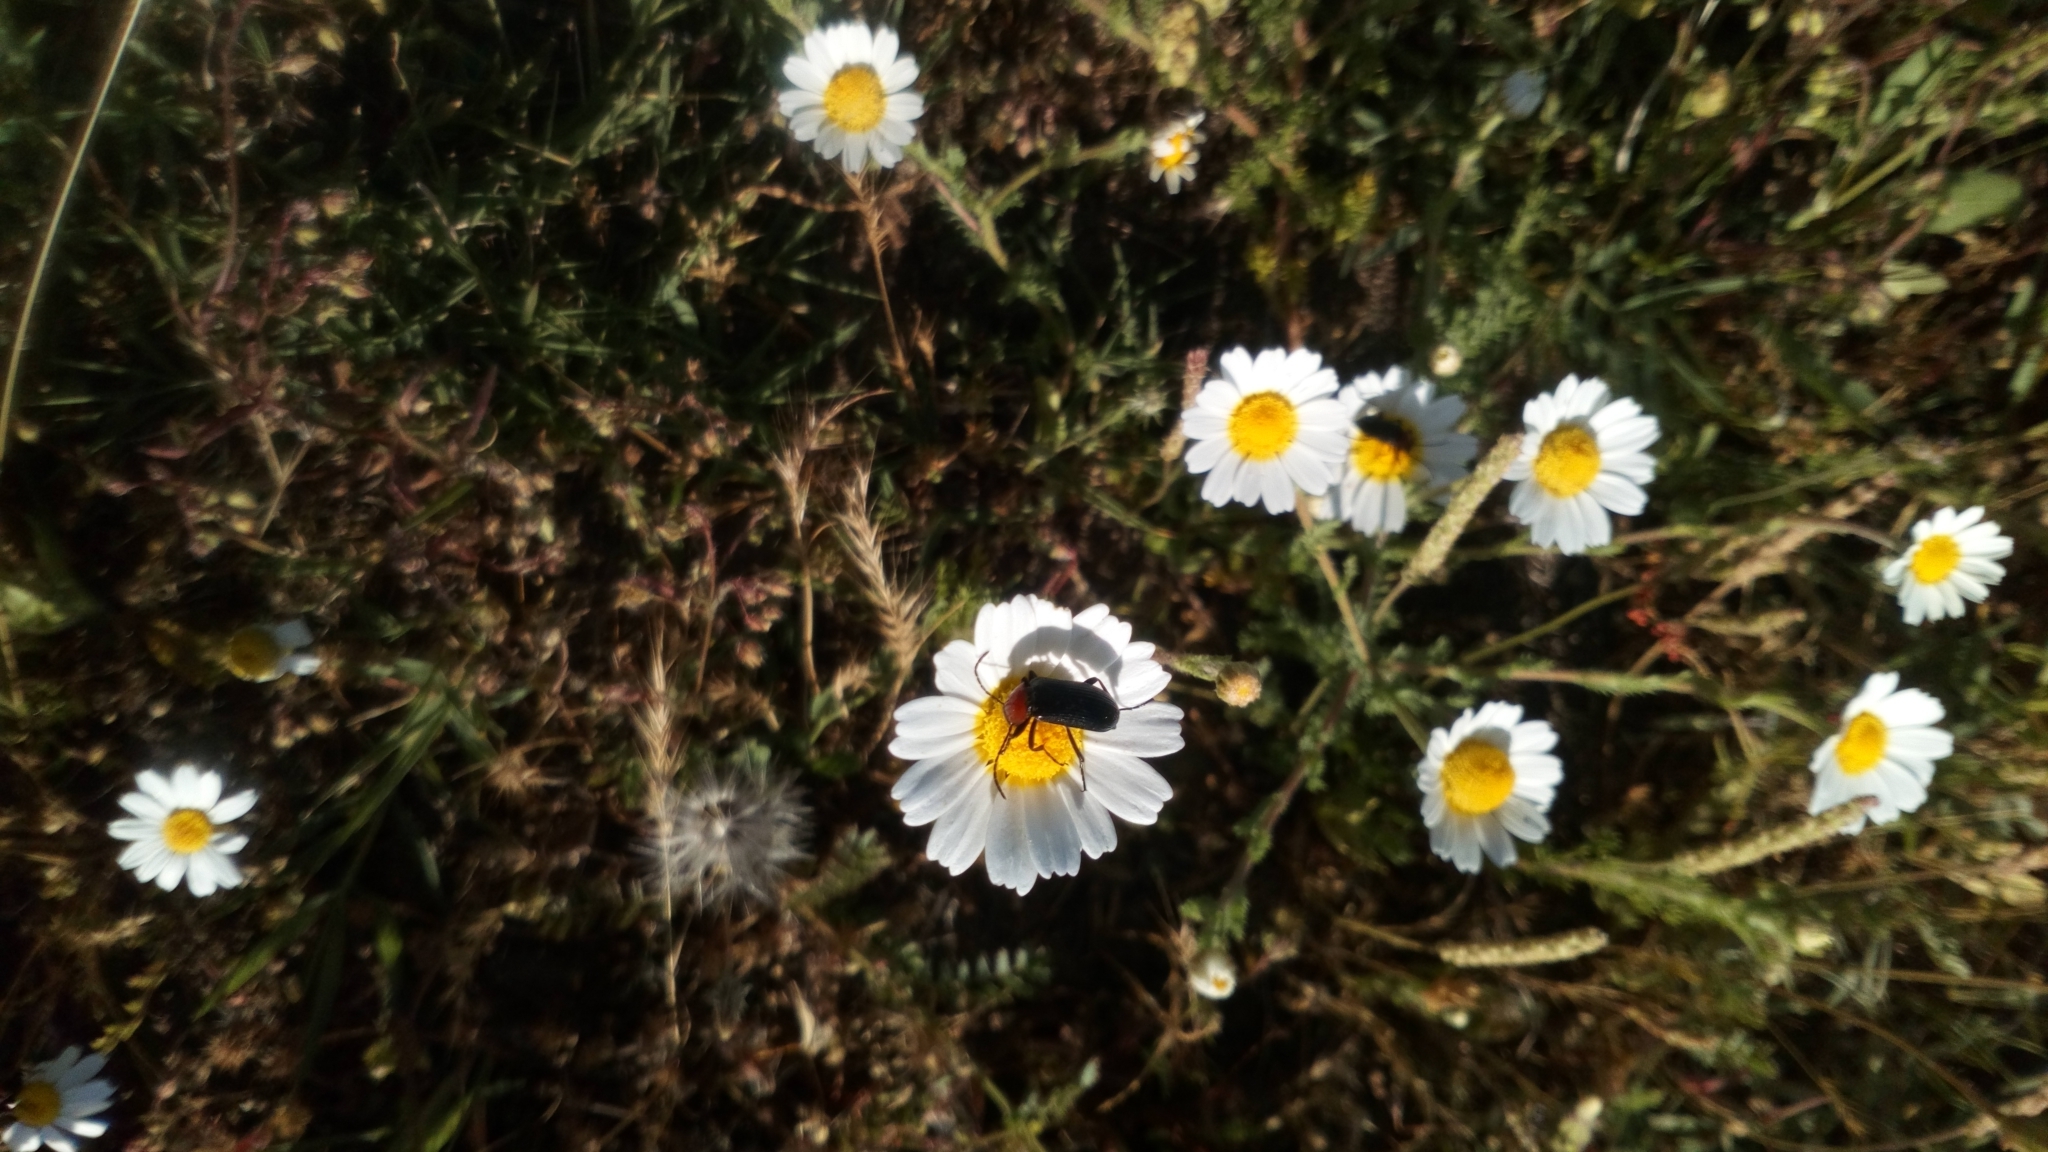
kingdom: Animalia
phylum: Arthropoda
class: Insecta
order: Coleoptera
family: Tenebrionidae
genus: Heliotaurus
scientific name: Heliotaurus ruficollis
